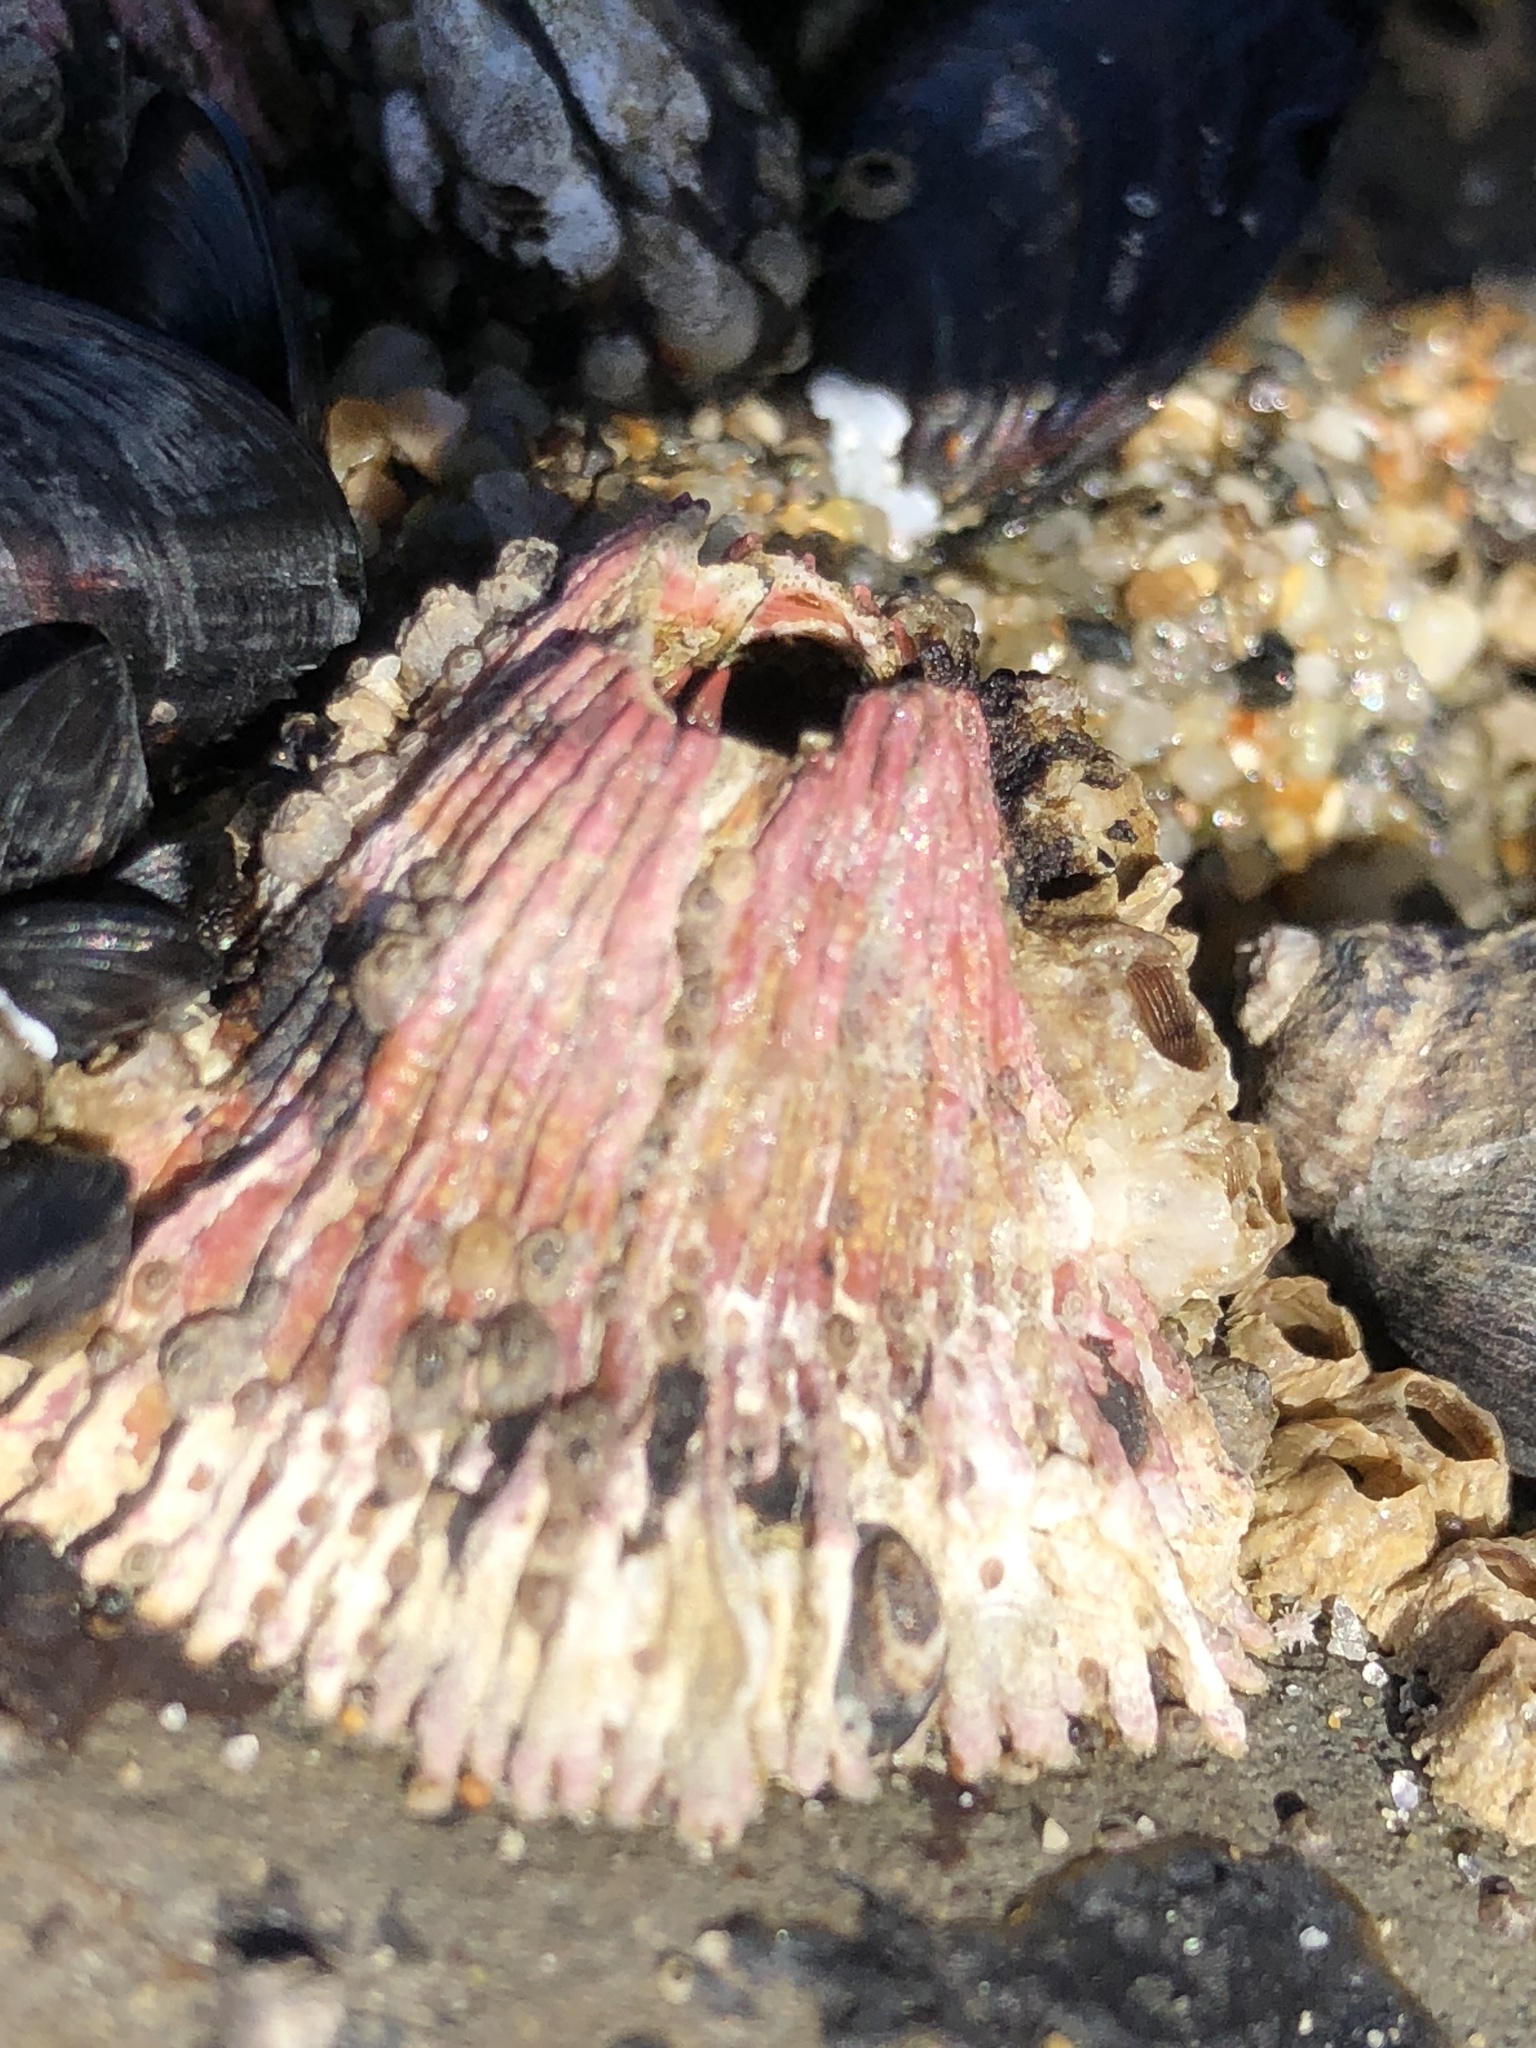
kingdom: Animalia
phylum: Arthropoda
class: Maxillopoda
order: Sessilia
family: Tetraclitidae
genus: Tetraclita
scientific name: Tetraclita rubescens
